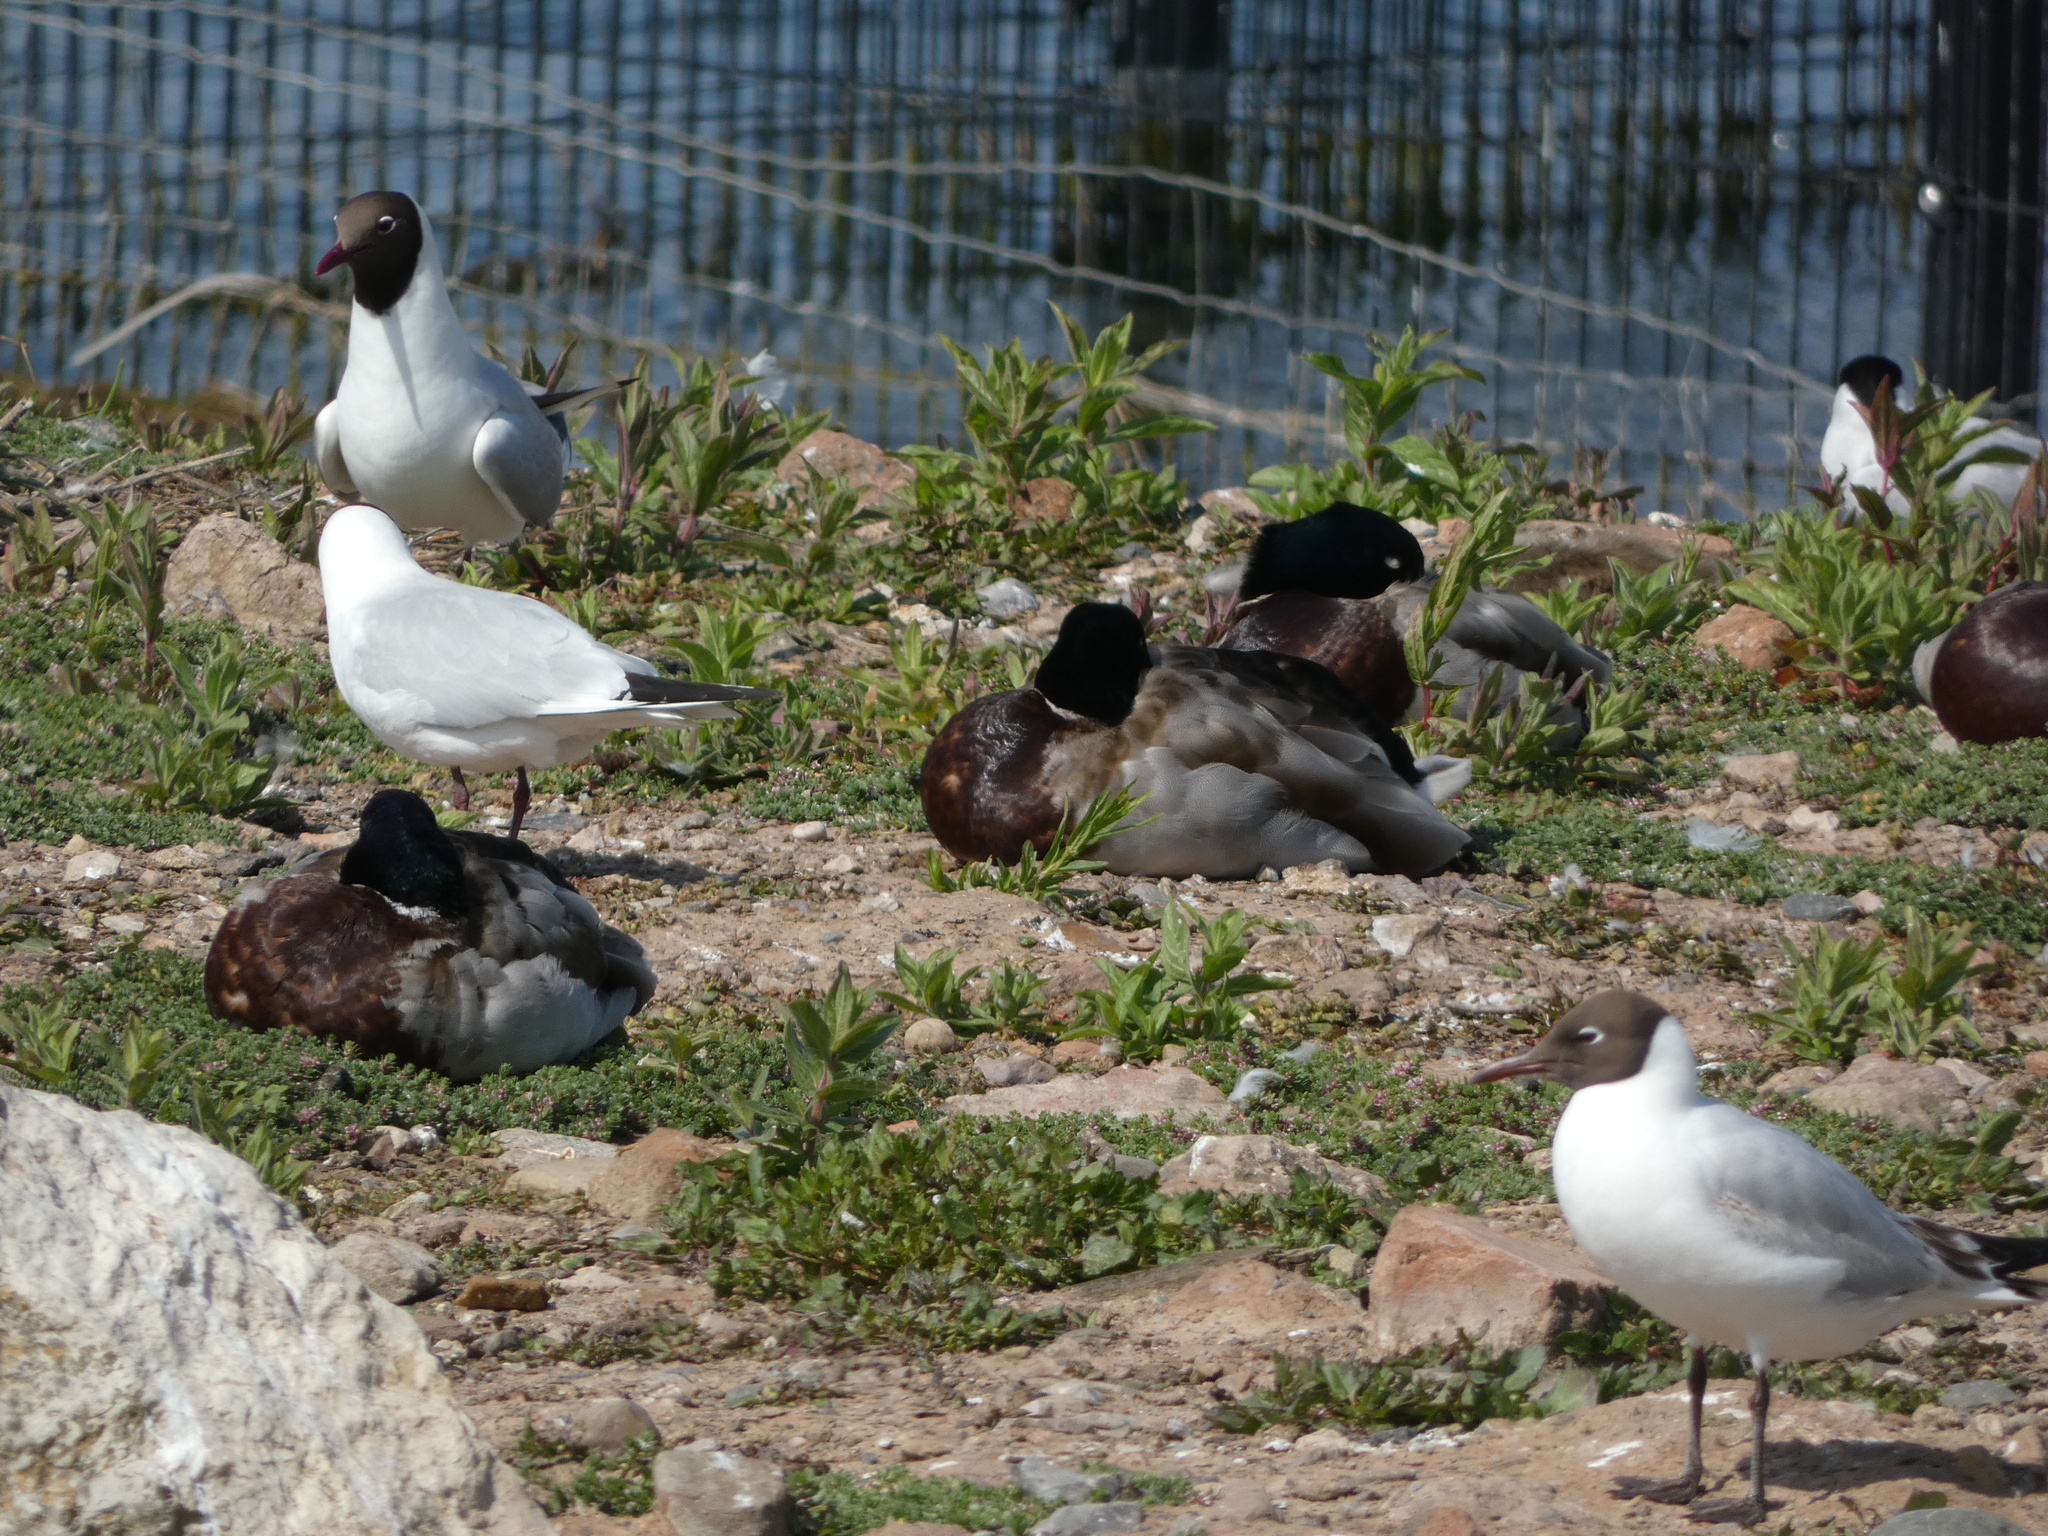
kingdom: Animalia
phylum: Chordata
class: Aves
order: Anseriformes
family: Anatidae
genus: Anas
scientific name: Anas platyrhynchos
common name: Mallard
